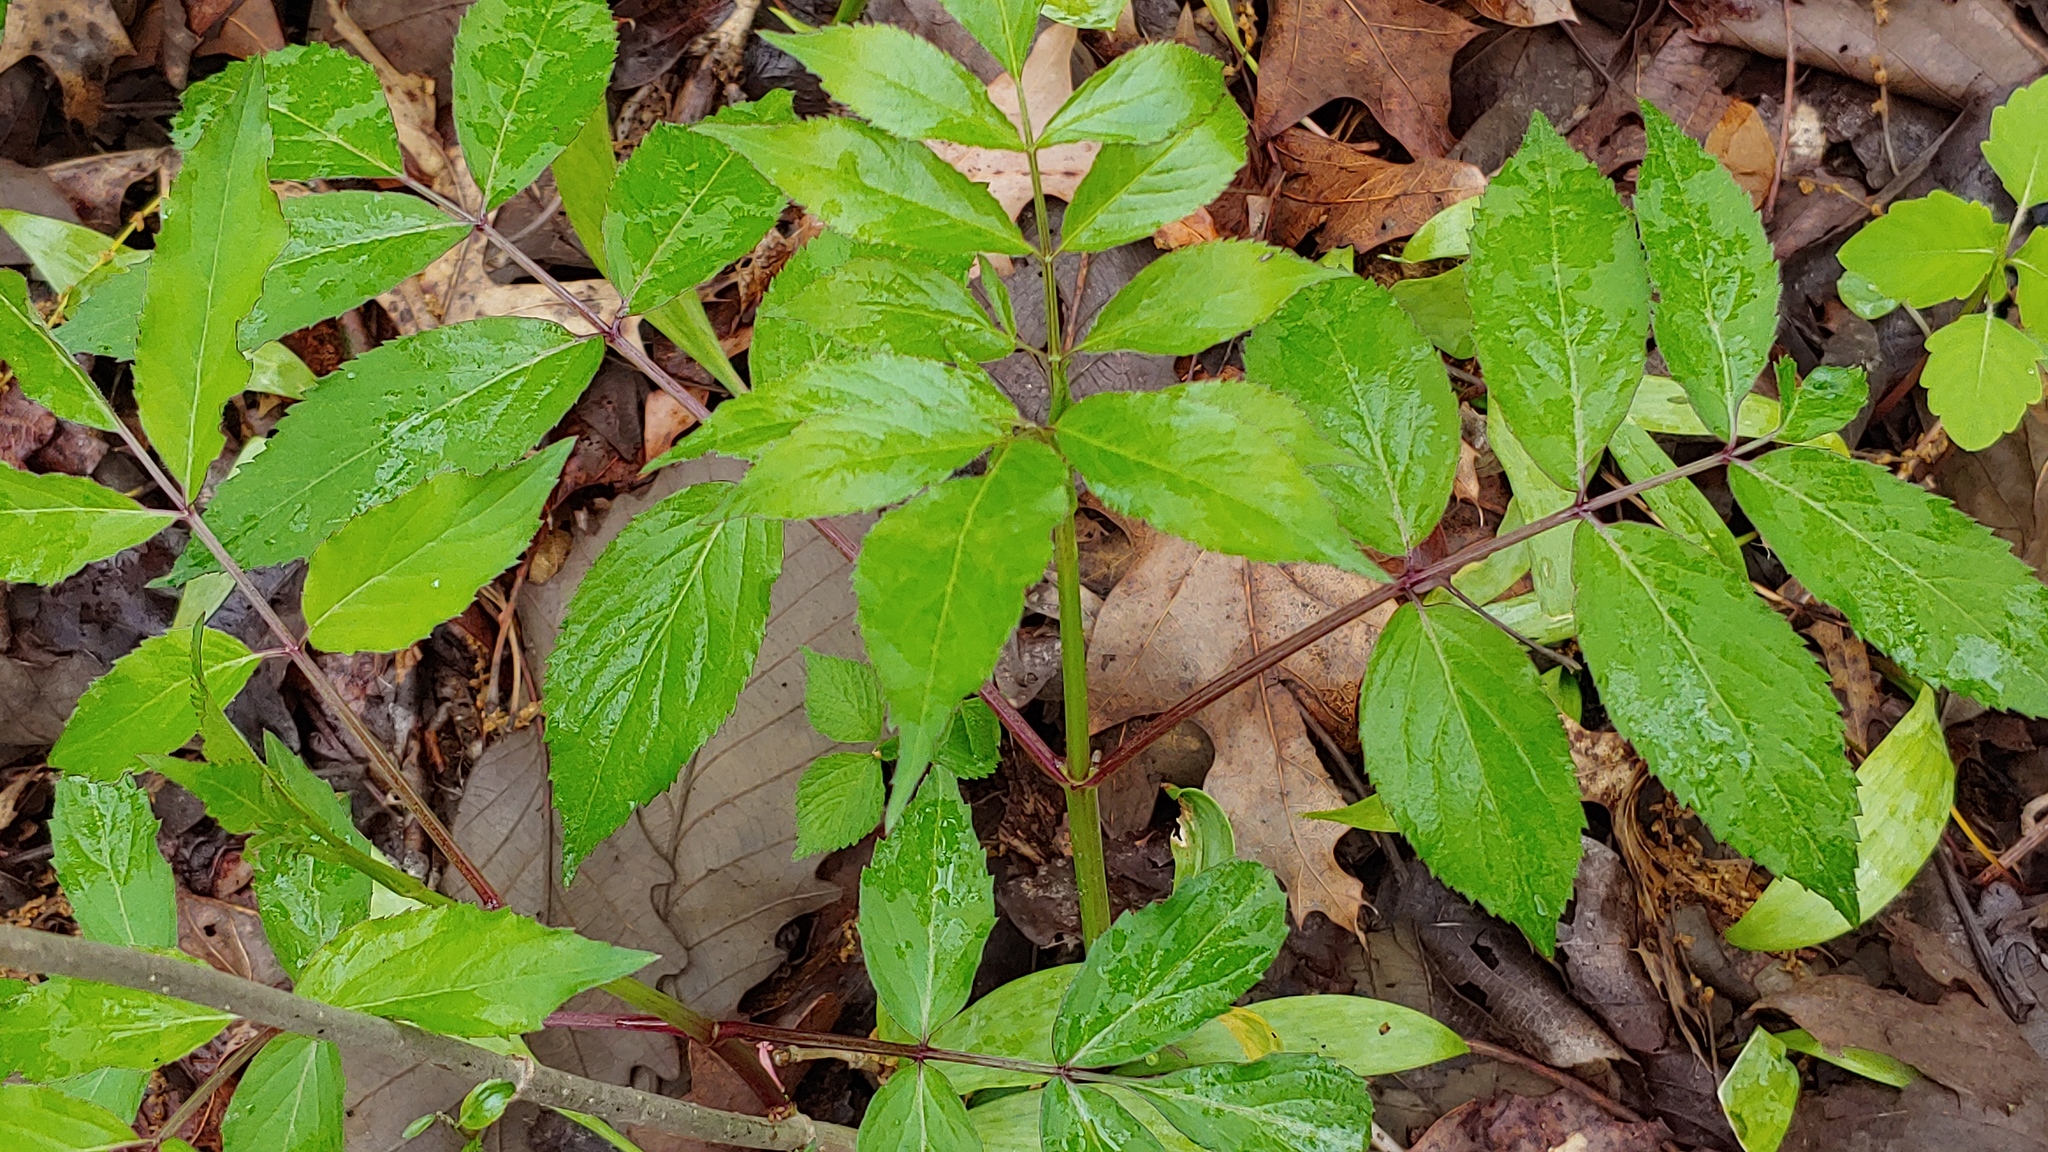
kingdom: Plantae
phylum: Tracheophyta
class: Magnoliopsida
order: Dipsacales
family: Viburnaceae
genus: Sambucus
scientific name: Sambucus canadensis
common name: American elder
